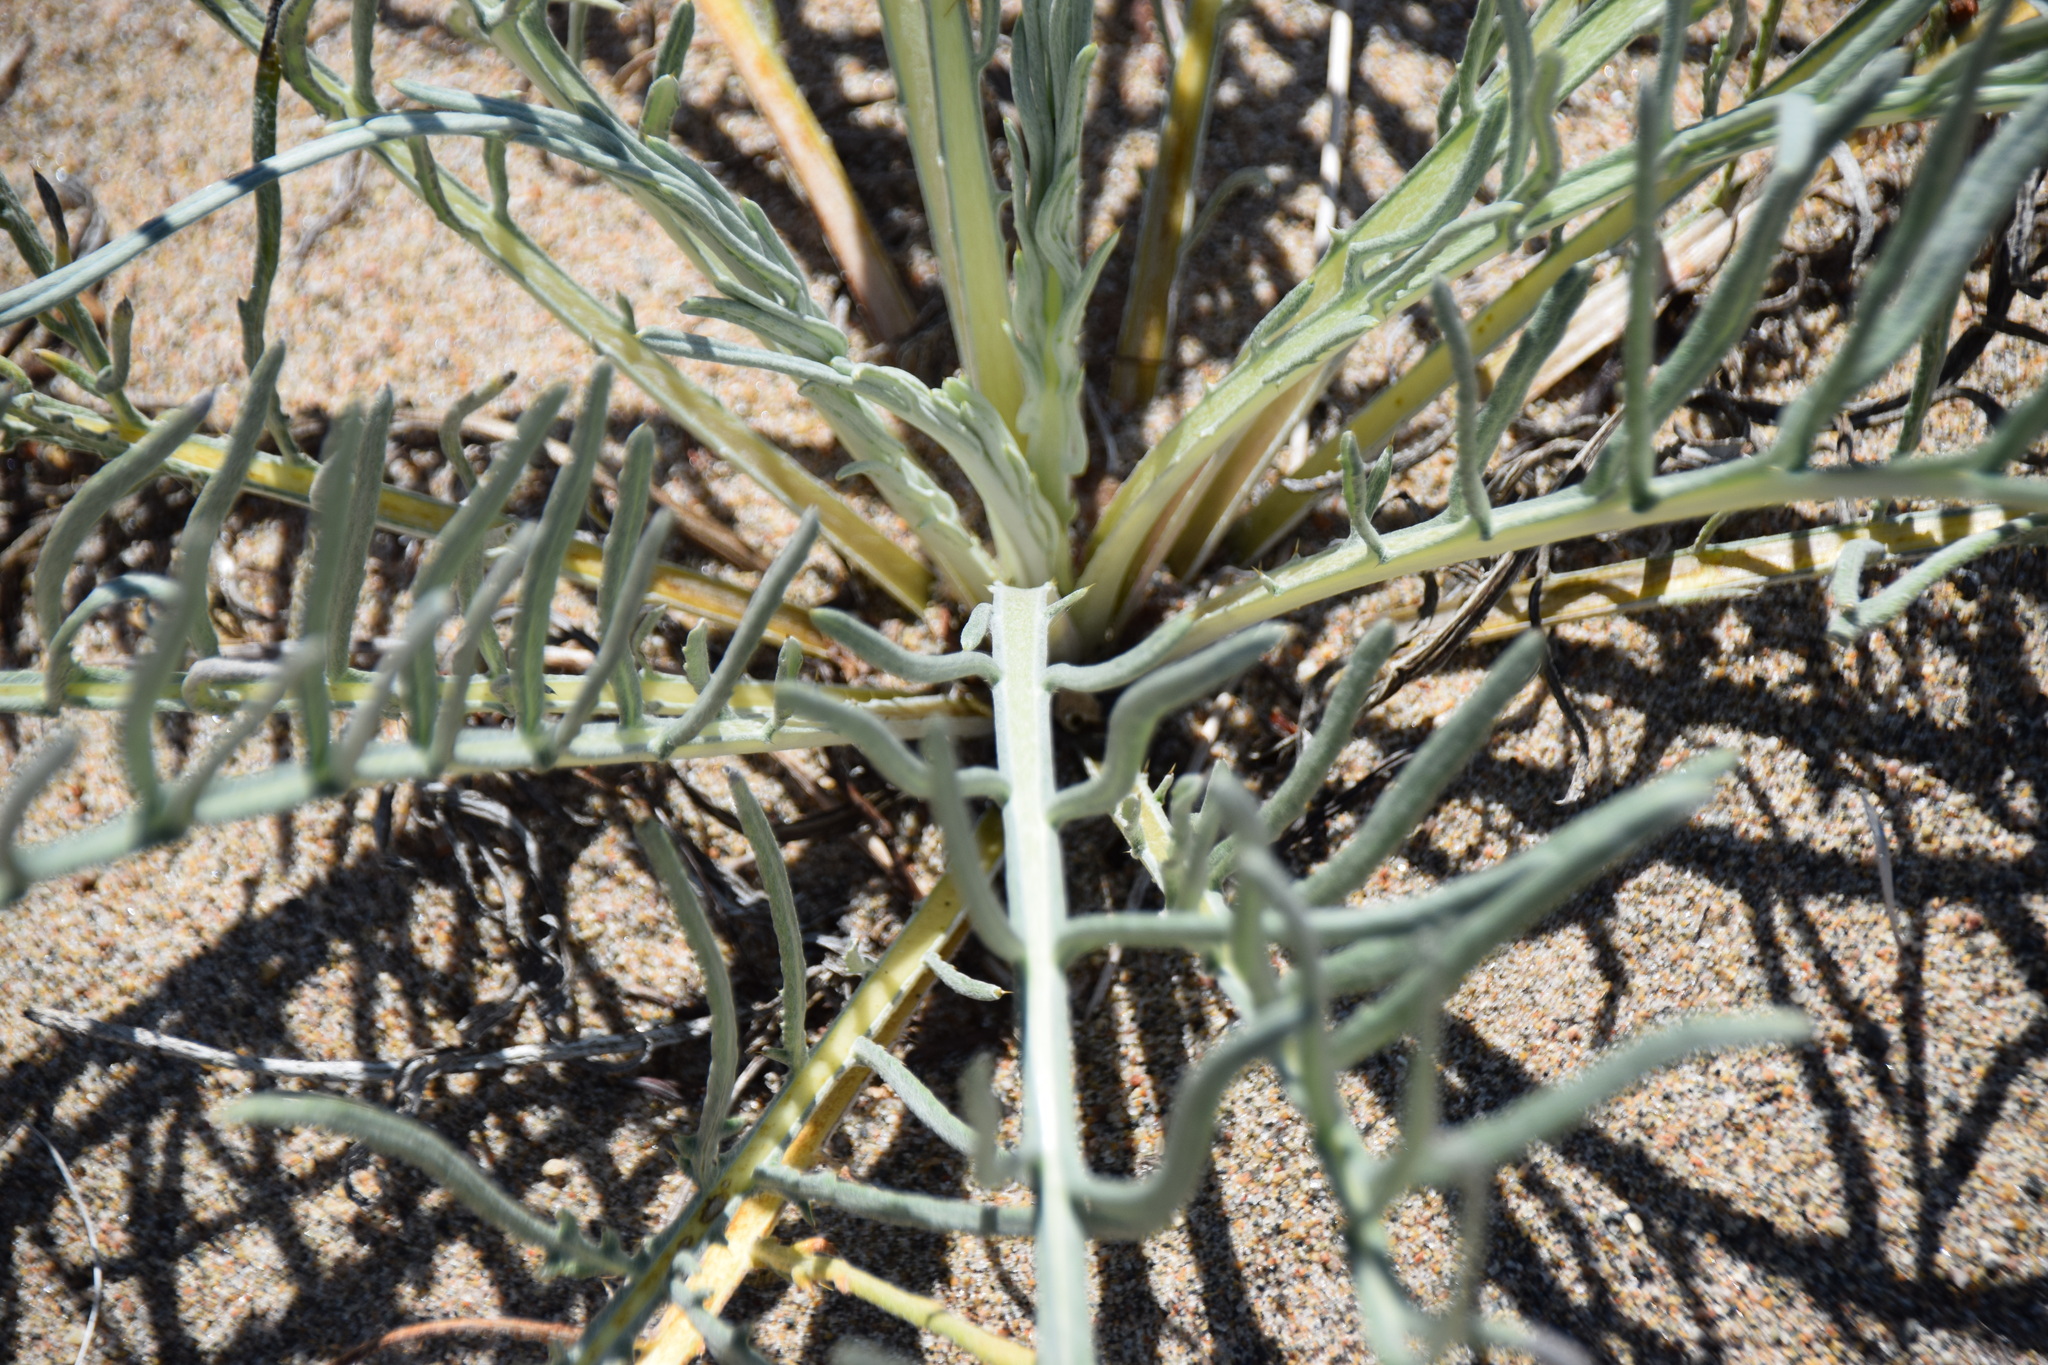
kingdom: Plantae
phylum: Tracheophyta
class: Magnoliopsida
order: Asterales
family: Asteraceae
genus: Cirsium
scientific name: Cirsium pitcheri
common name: Dune thistle
